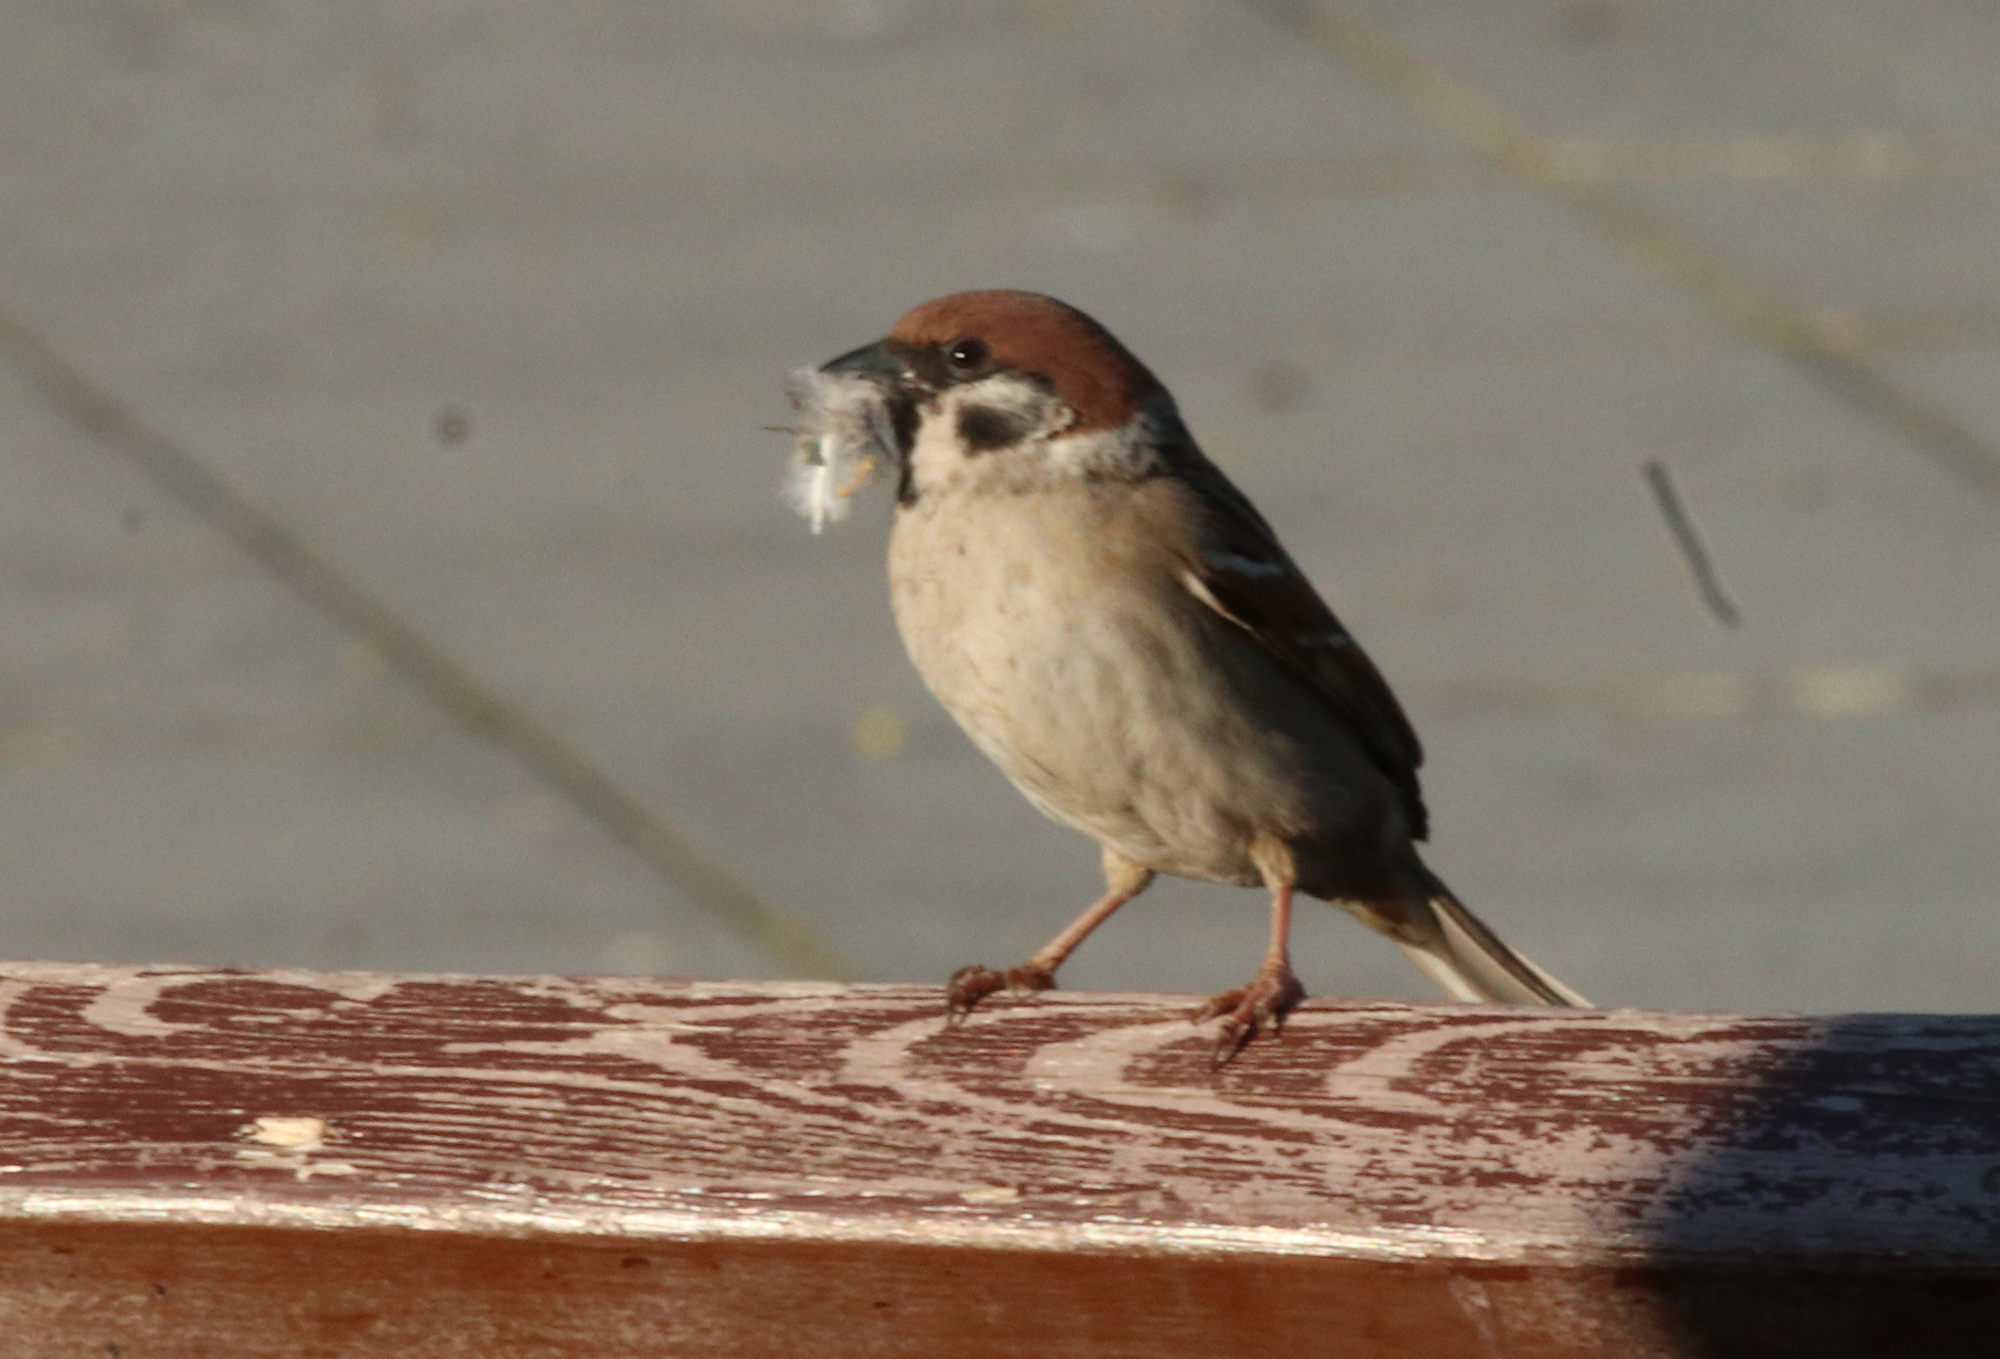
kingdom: Animalia
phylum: Chordata
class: Aves
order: Passeriformes
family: Passeridae
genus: Passer
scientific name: Passer montanus
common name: Eurasian tree sparrow
